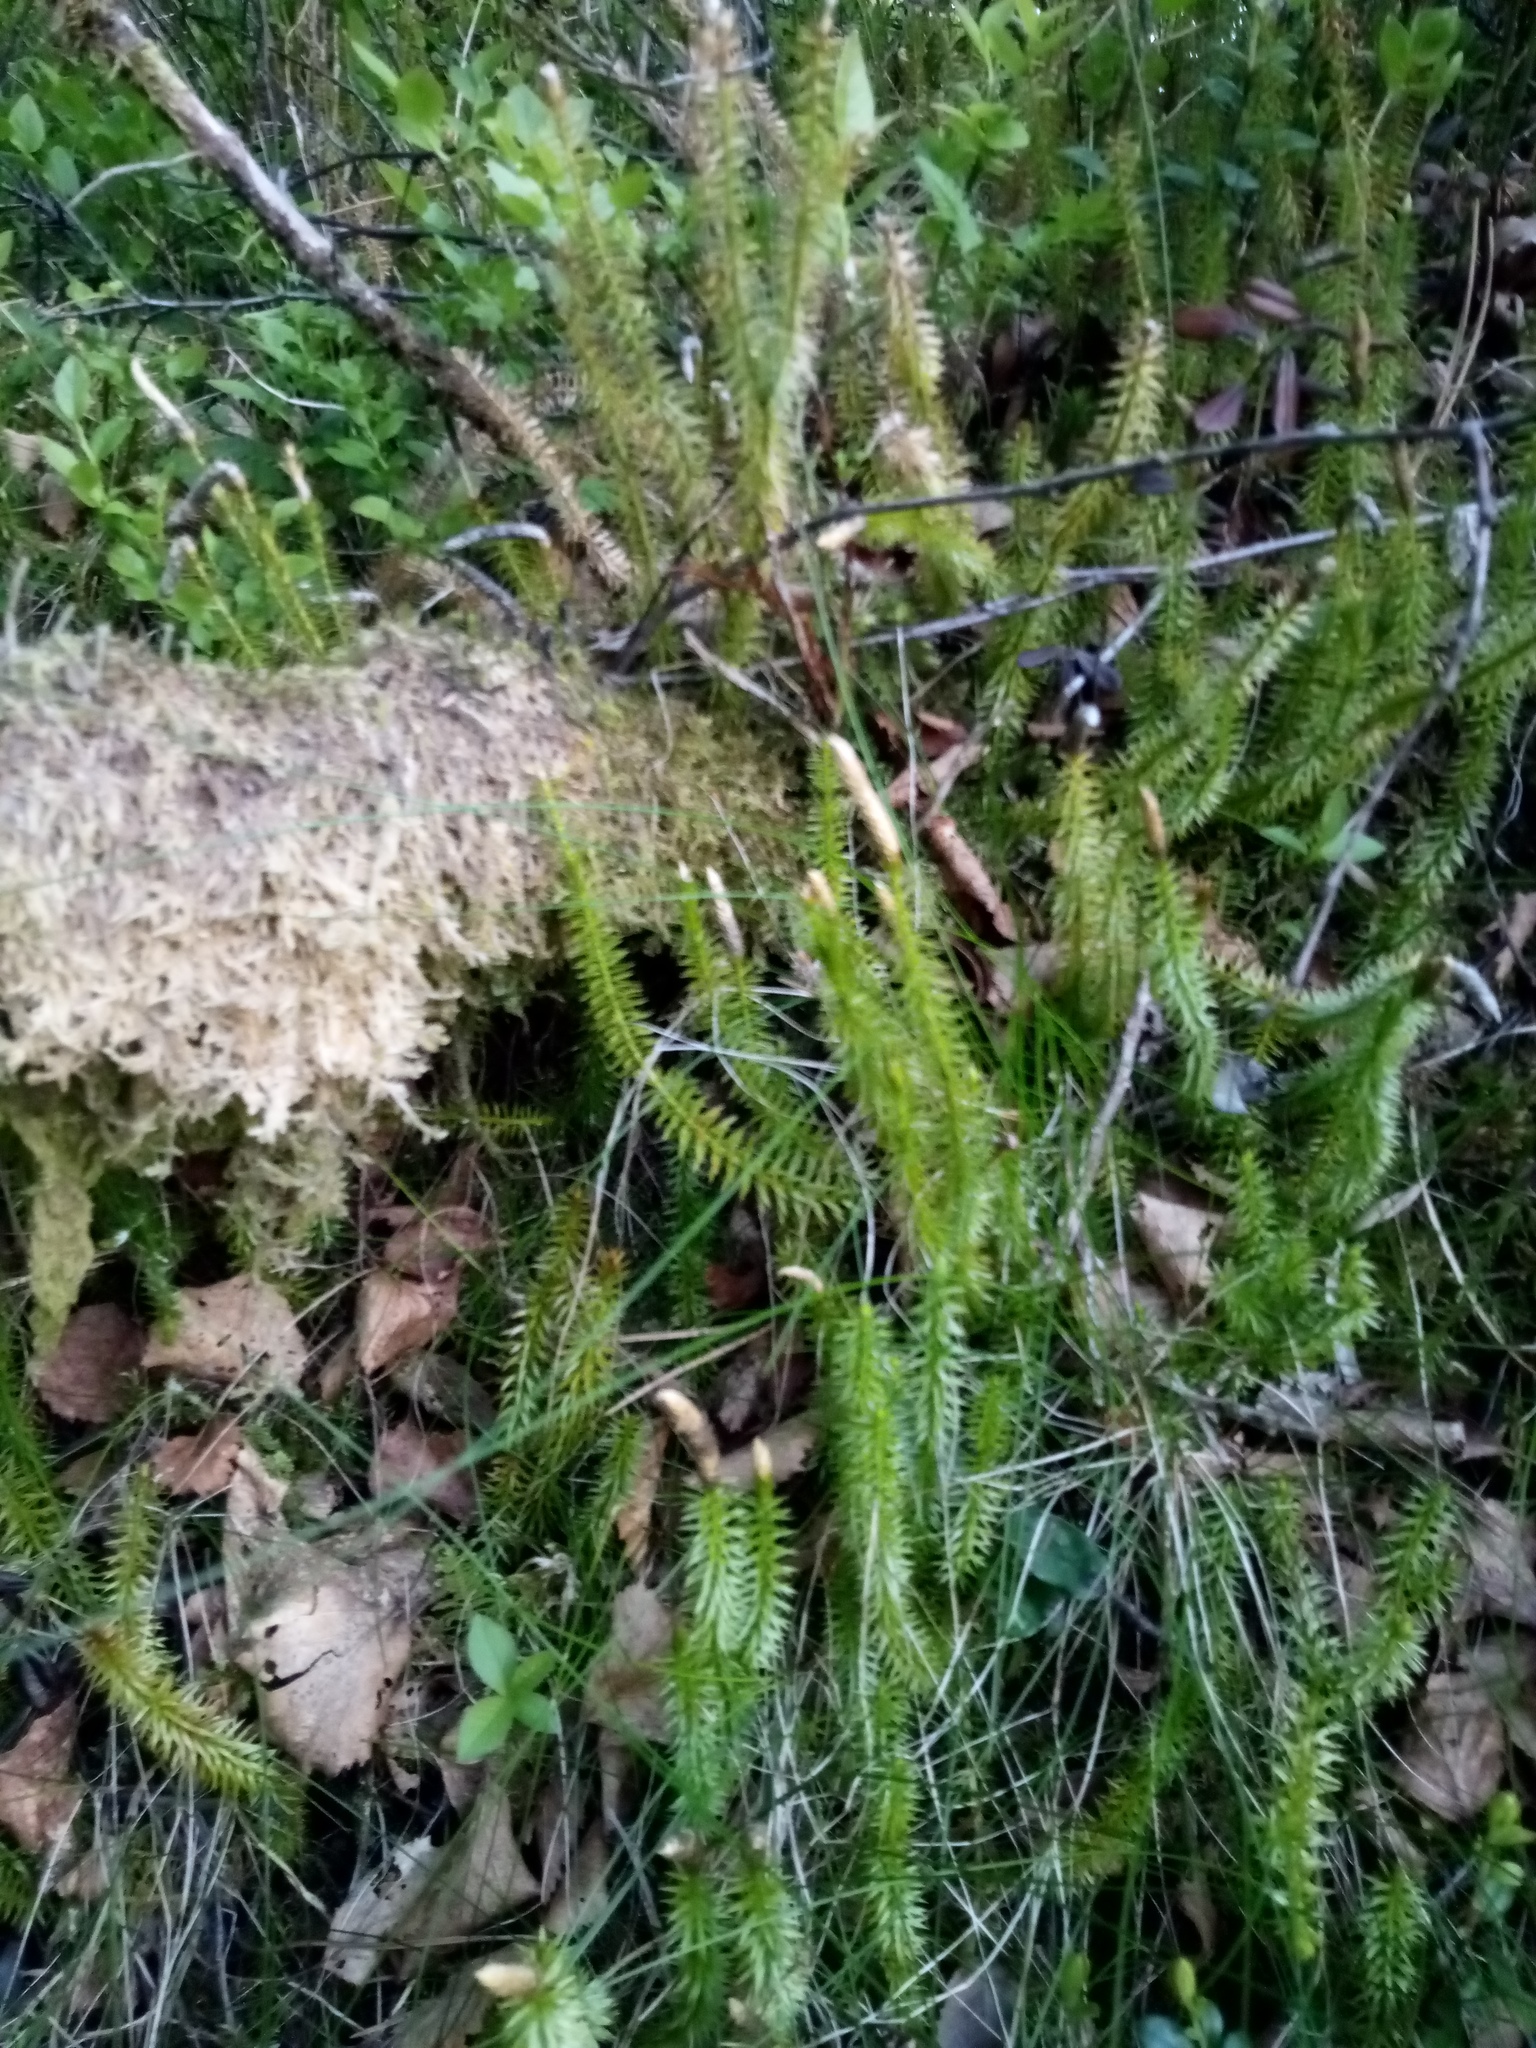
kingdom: Plantae
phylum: Tracheophyta
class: Lycopodiopsida
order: Lycopodiales
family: Lycopodiaceae
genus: Spinulum
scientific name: Spinulum annotinum
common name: Interrupted club-moss
